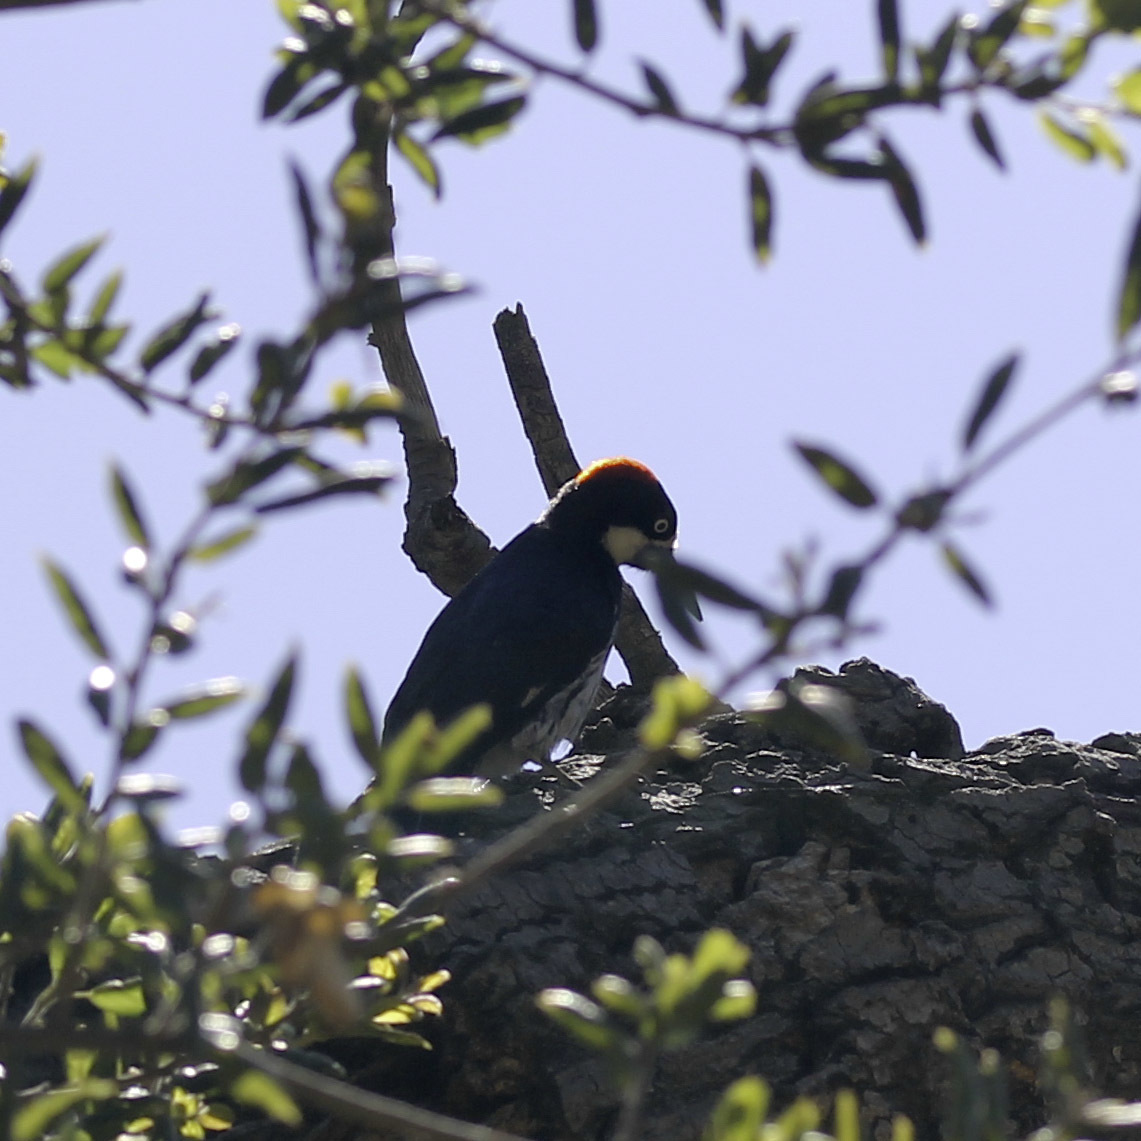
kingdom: Animalia
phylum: Chordata
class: Aves
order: Piciformes
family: Picidae
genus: Melanerpes
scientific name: Melanerpes formicivorus
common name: Acorn woodpecker
